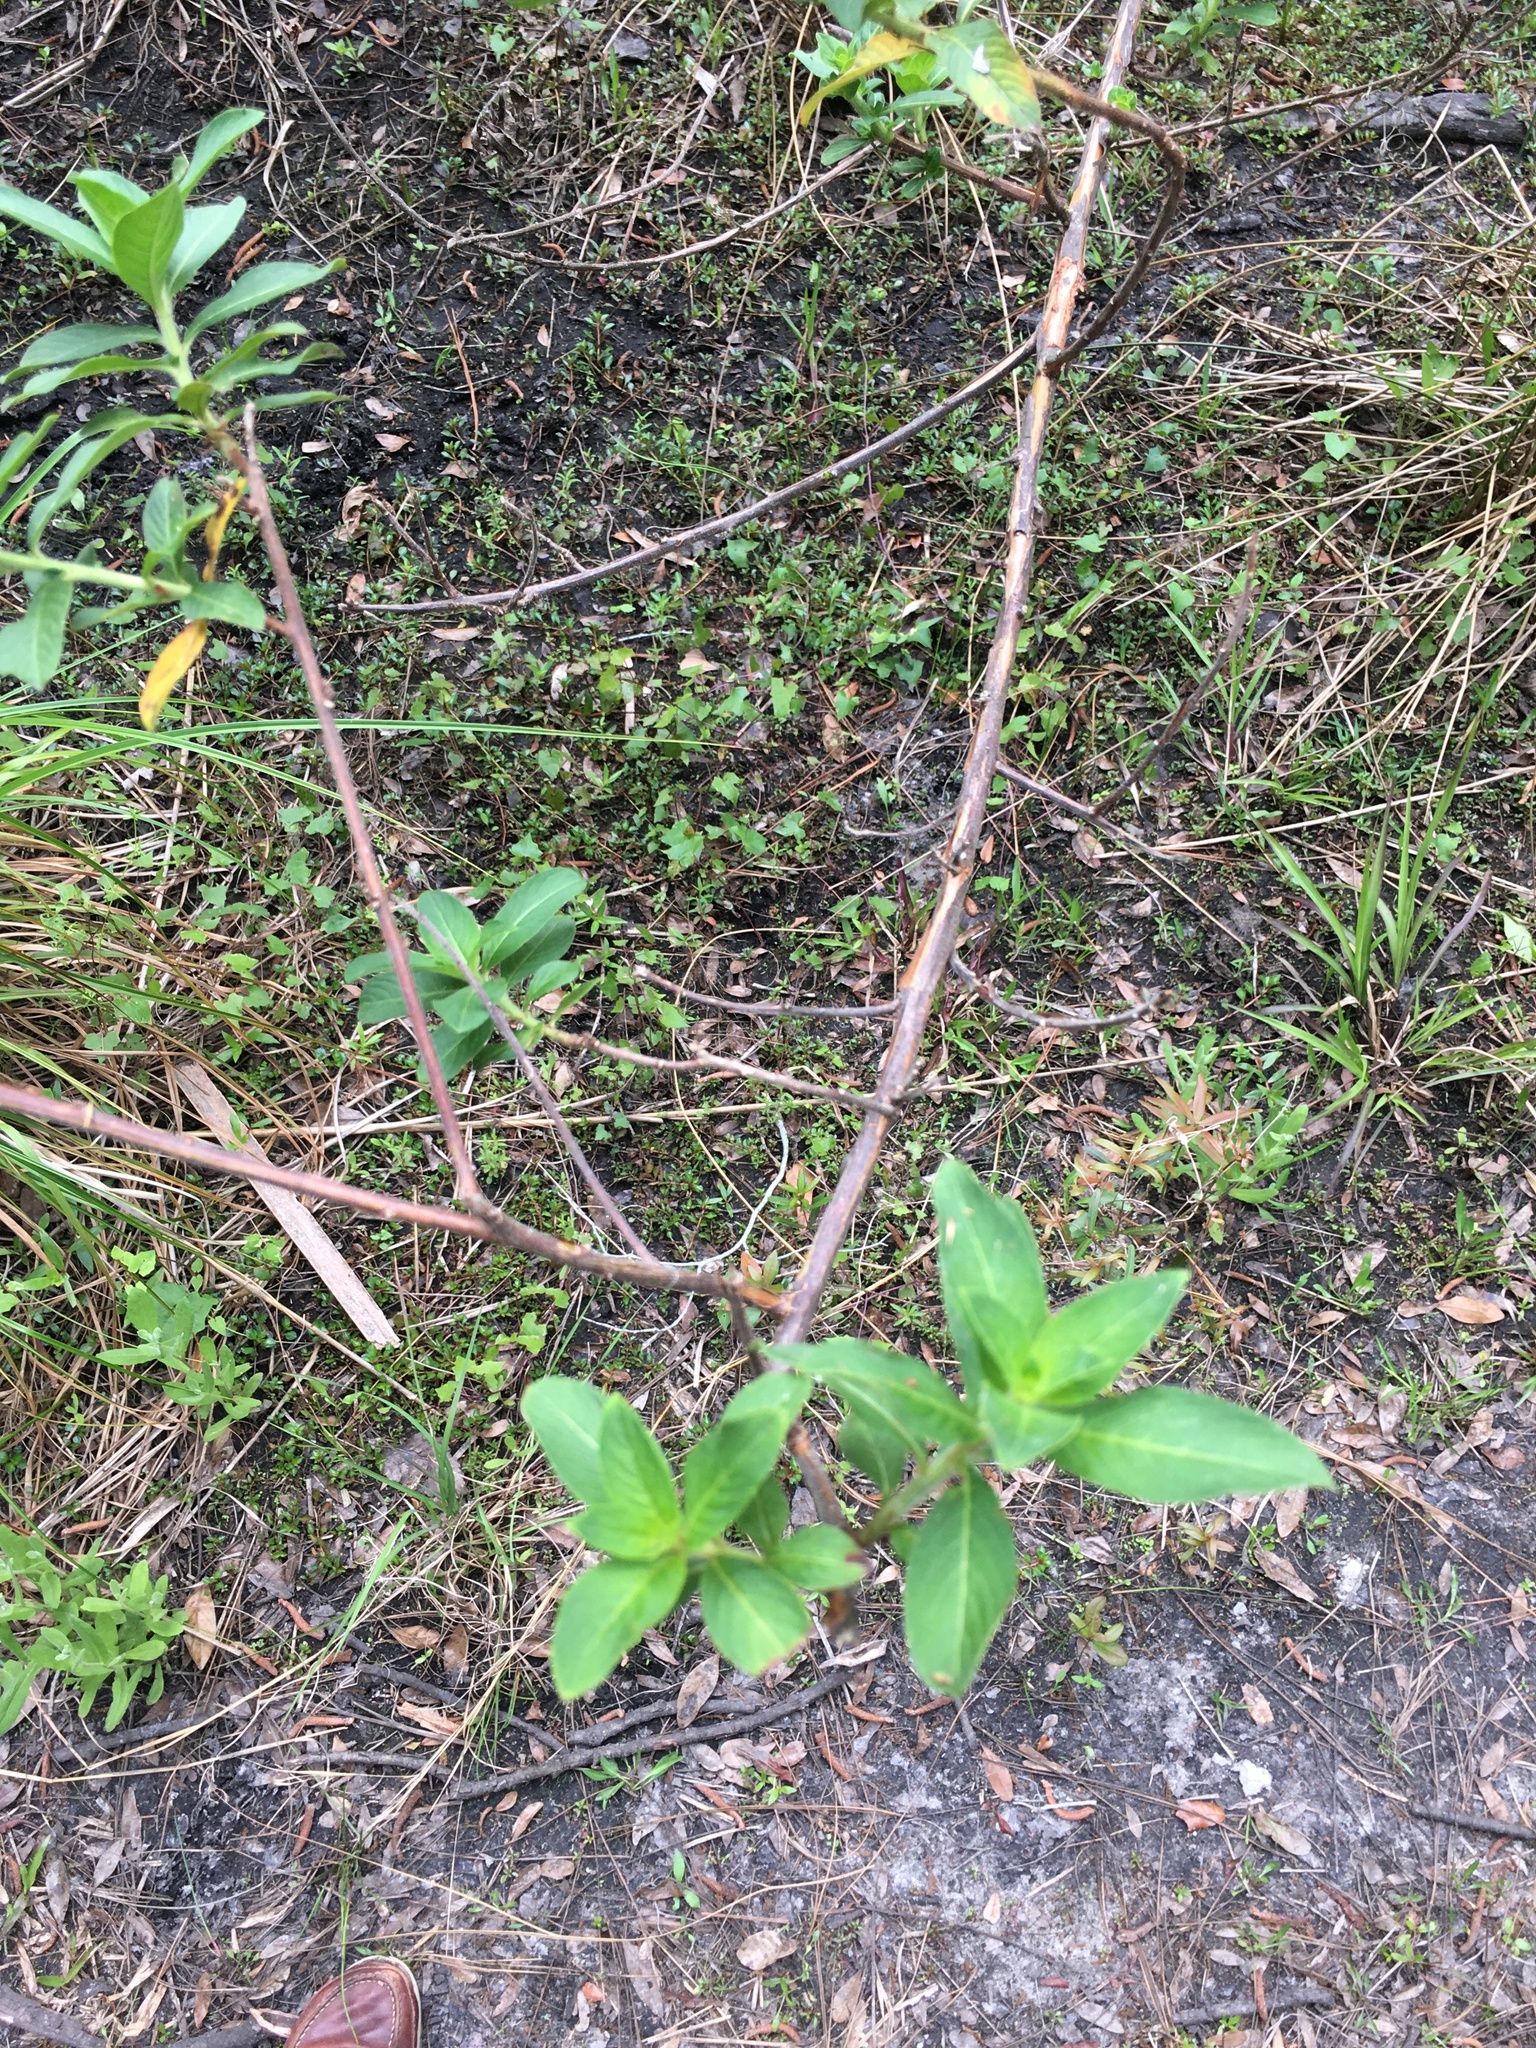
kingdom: Plantae
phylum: Tracheophyta
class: Magnoliopsida
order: Myrtales
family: Onagraceae
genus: Ludwigia
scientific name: Ludwigia peruviana
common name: Peruvian primrose-willow
